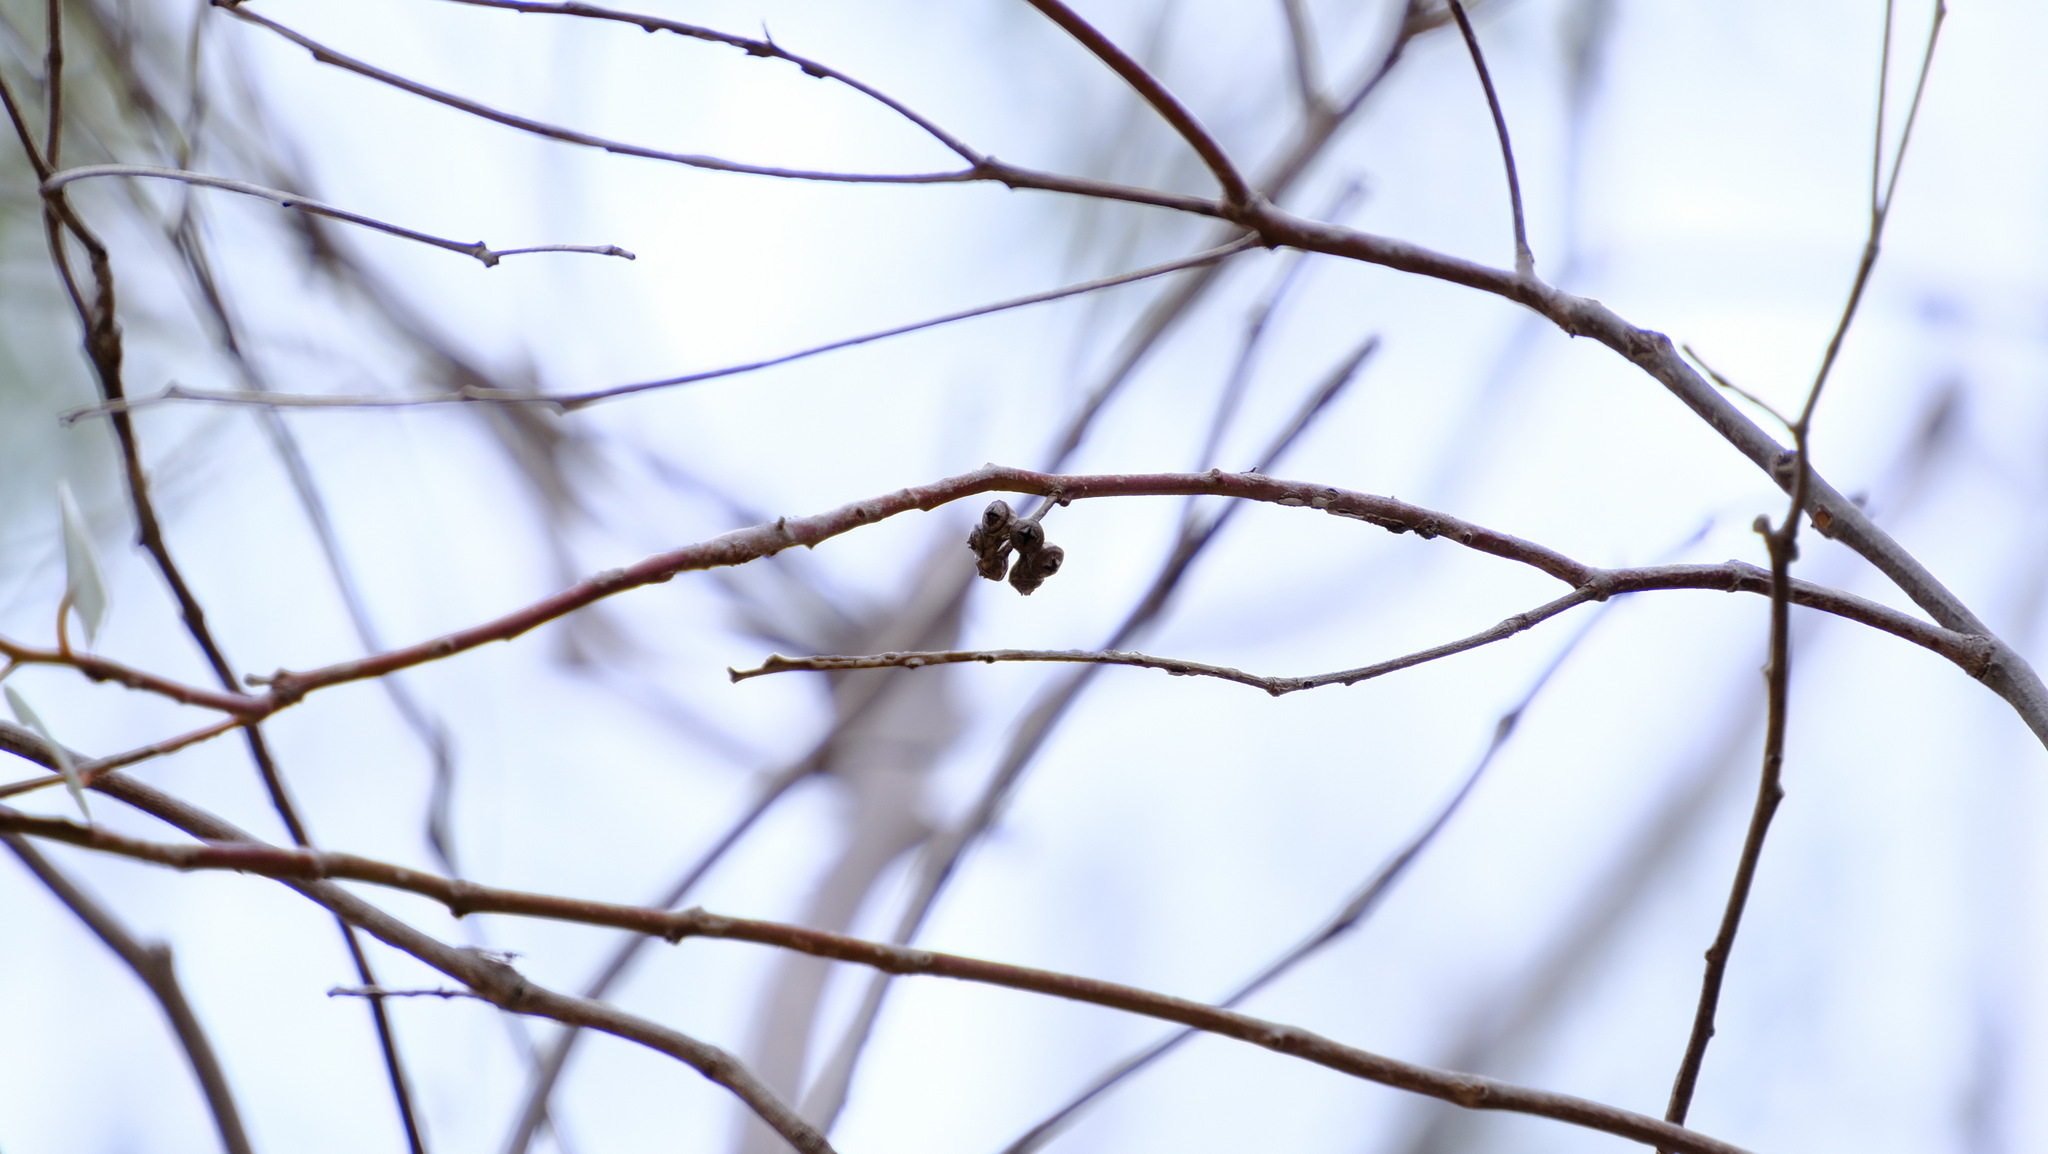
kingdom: Plantae
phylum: Tracheophyta
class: Magnoliopsida
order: Myrtales
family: Myrtaceae
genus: Eucalyptus
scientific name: Eucalyptus camaldulensis
